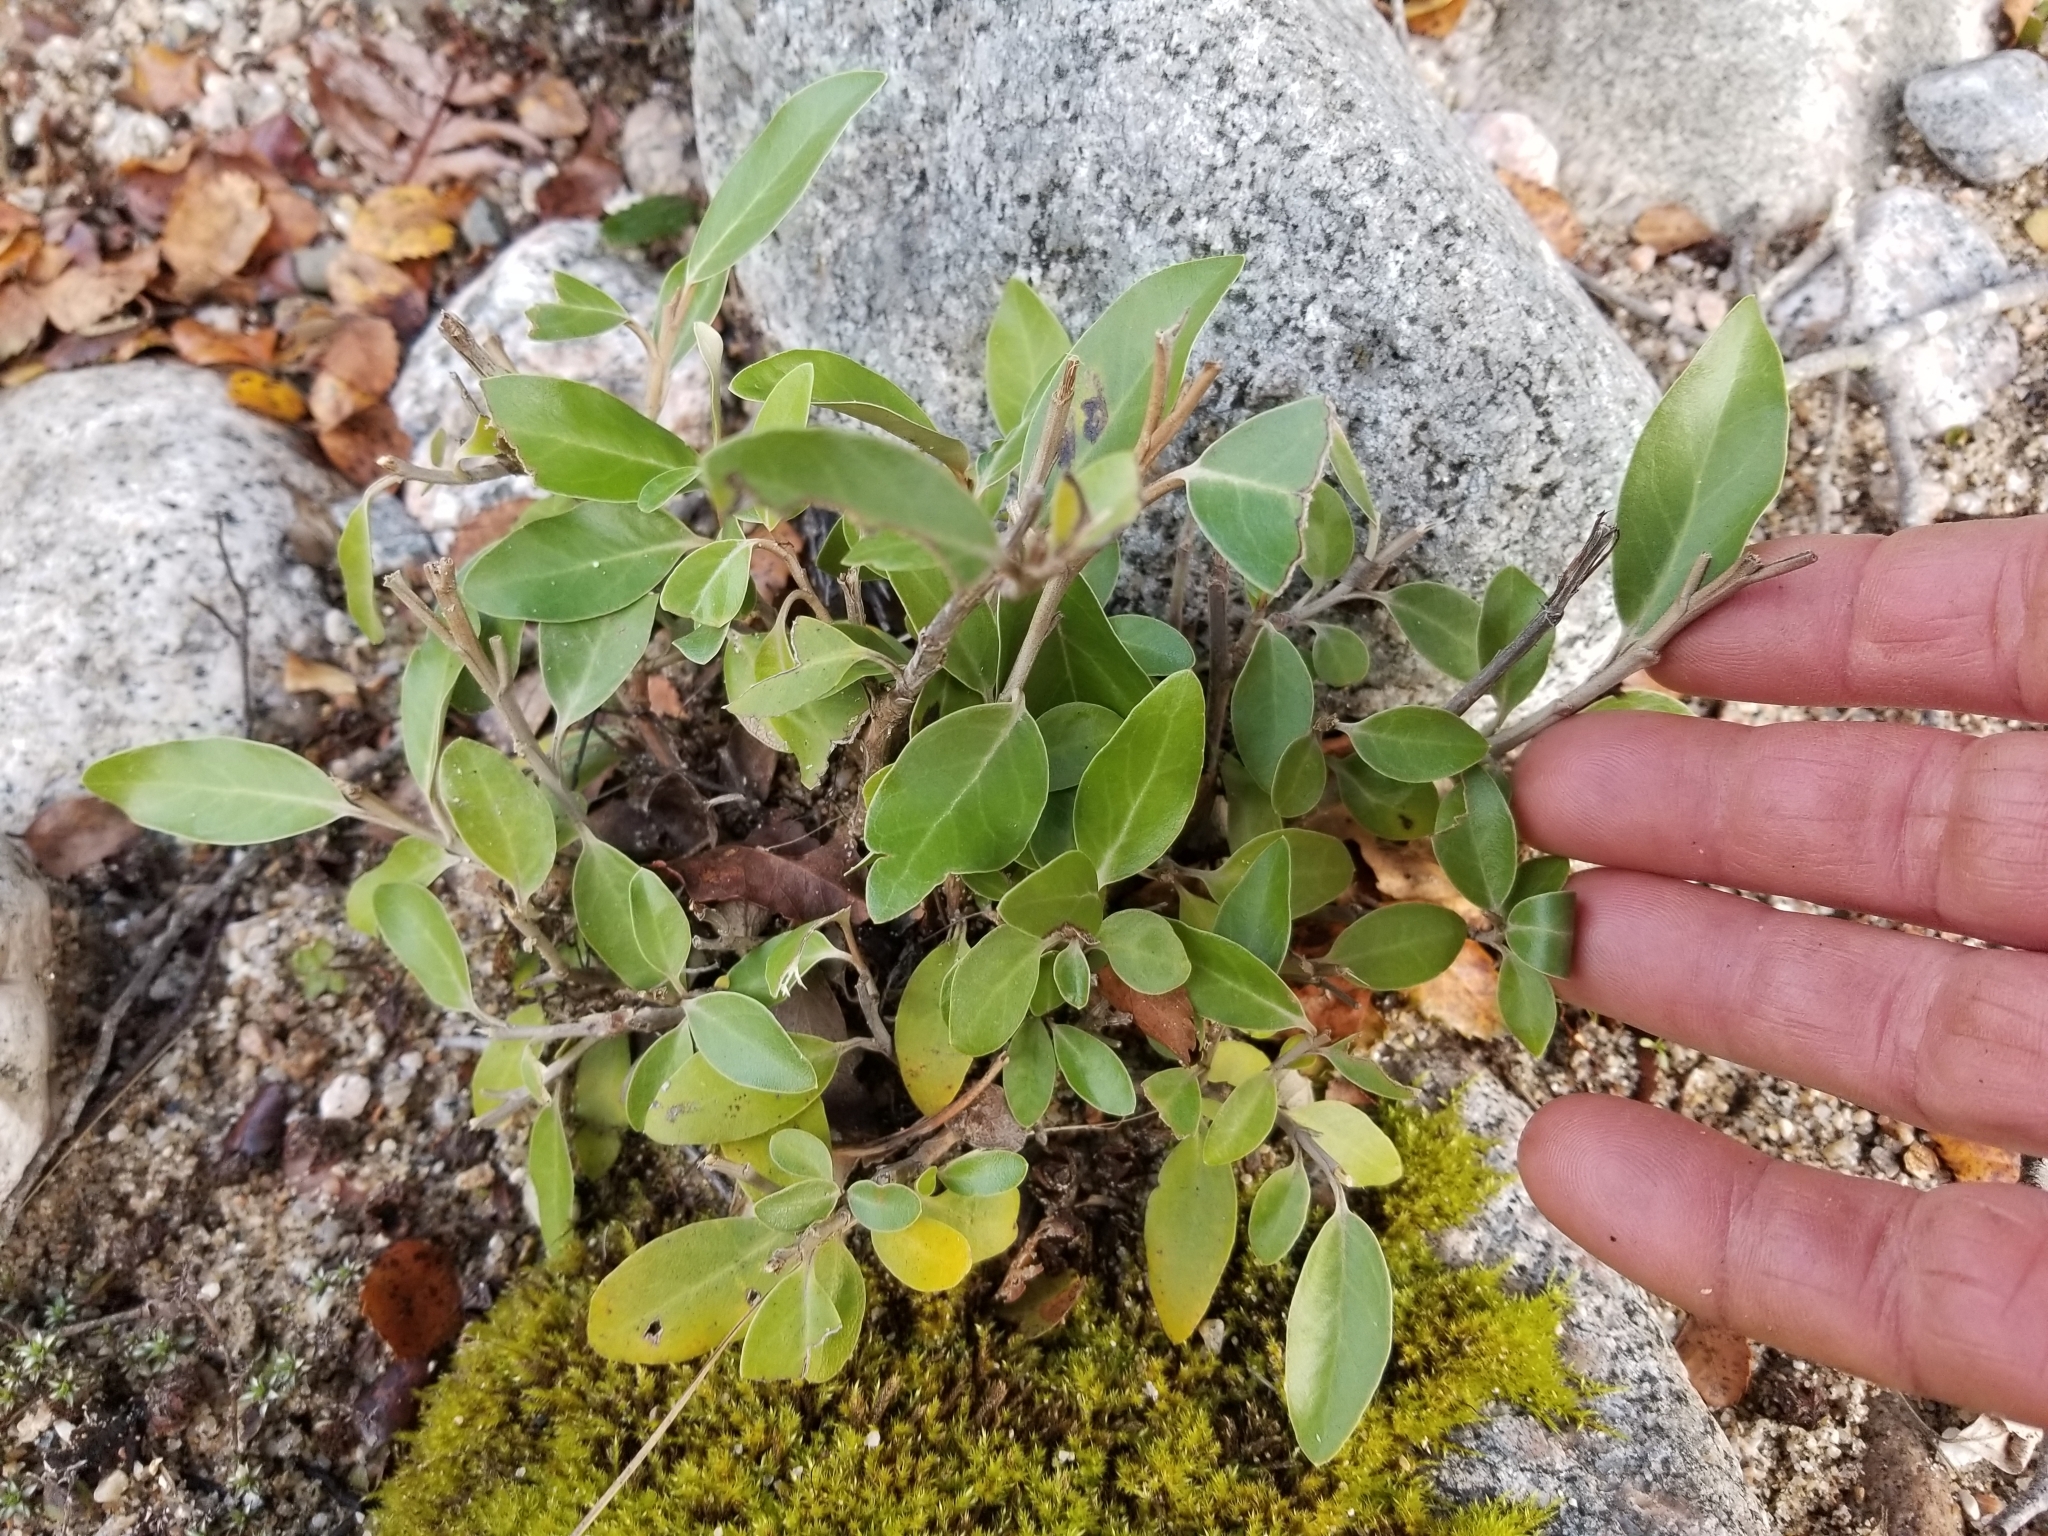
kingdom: Plantae
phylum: Tracheophyta
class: Magnoliopsida
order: Asterales
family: Asteraceae
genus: Olearia
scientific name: Olearia avicenniifolia
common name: Mangrove-leaf daisybush
